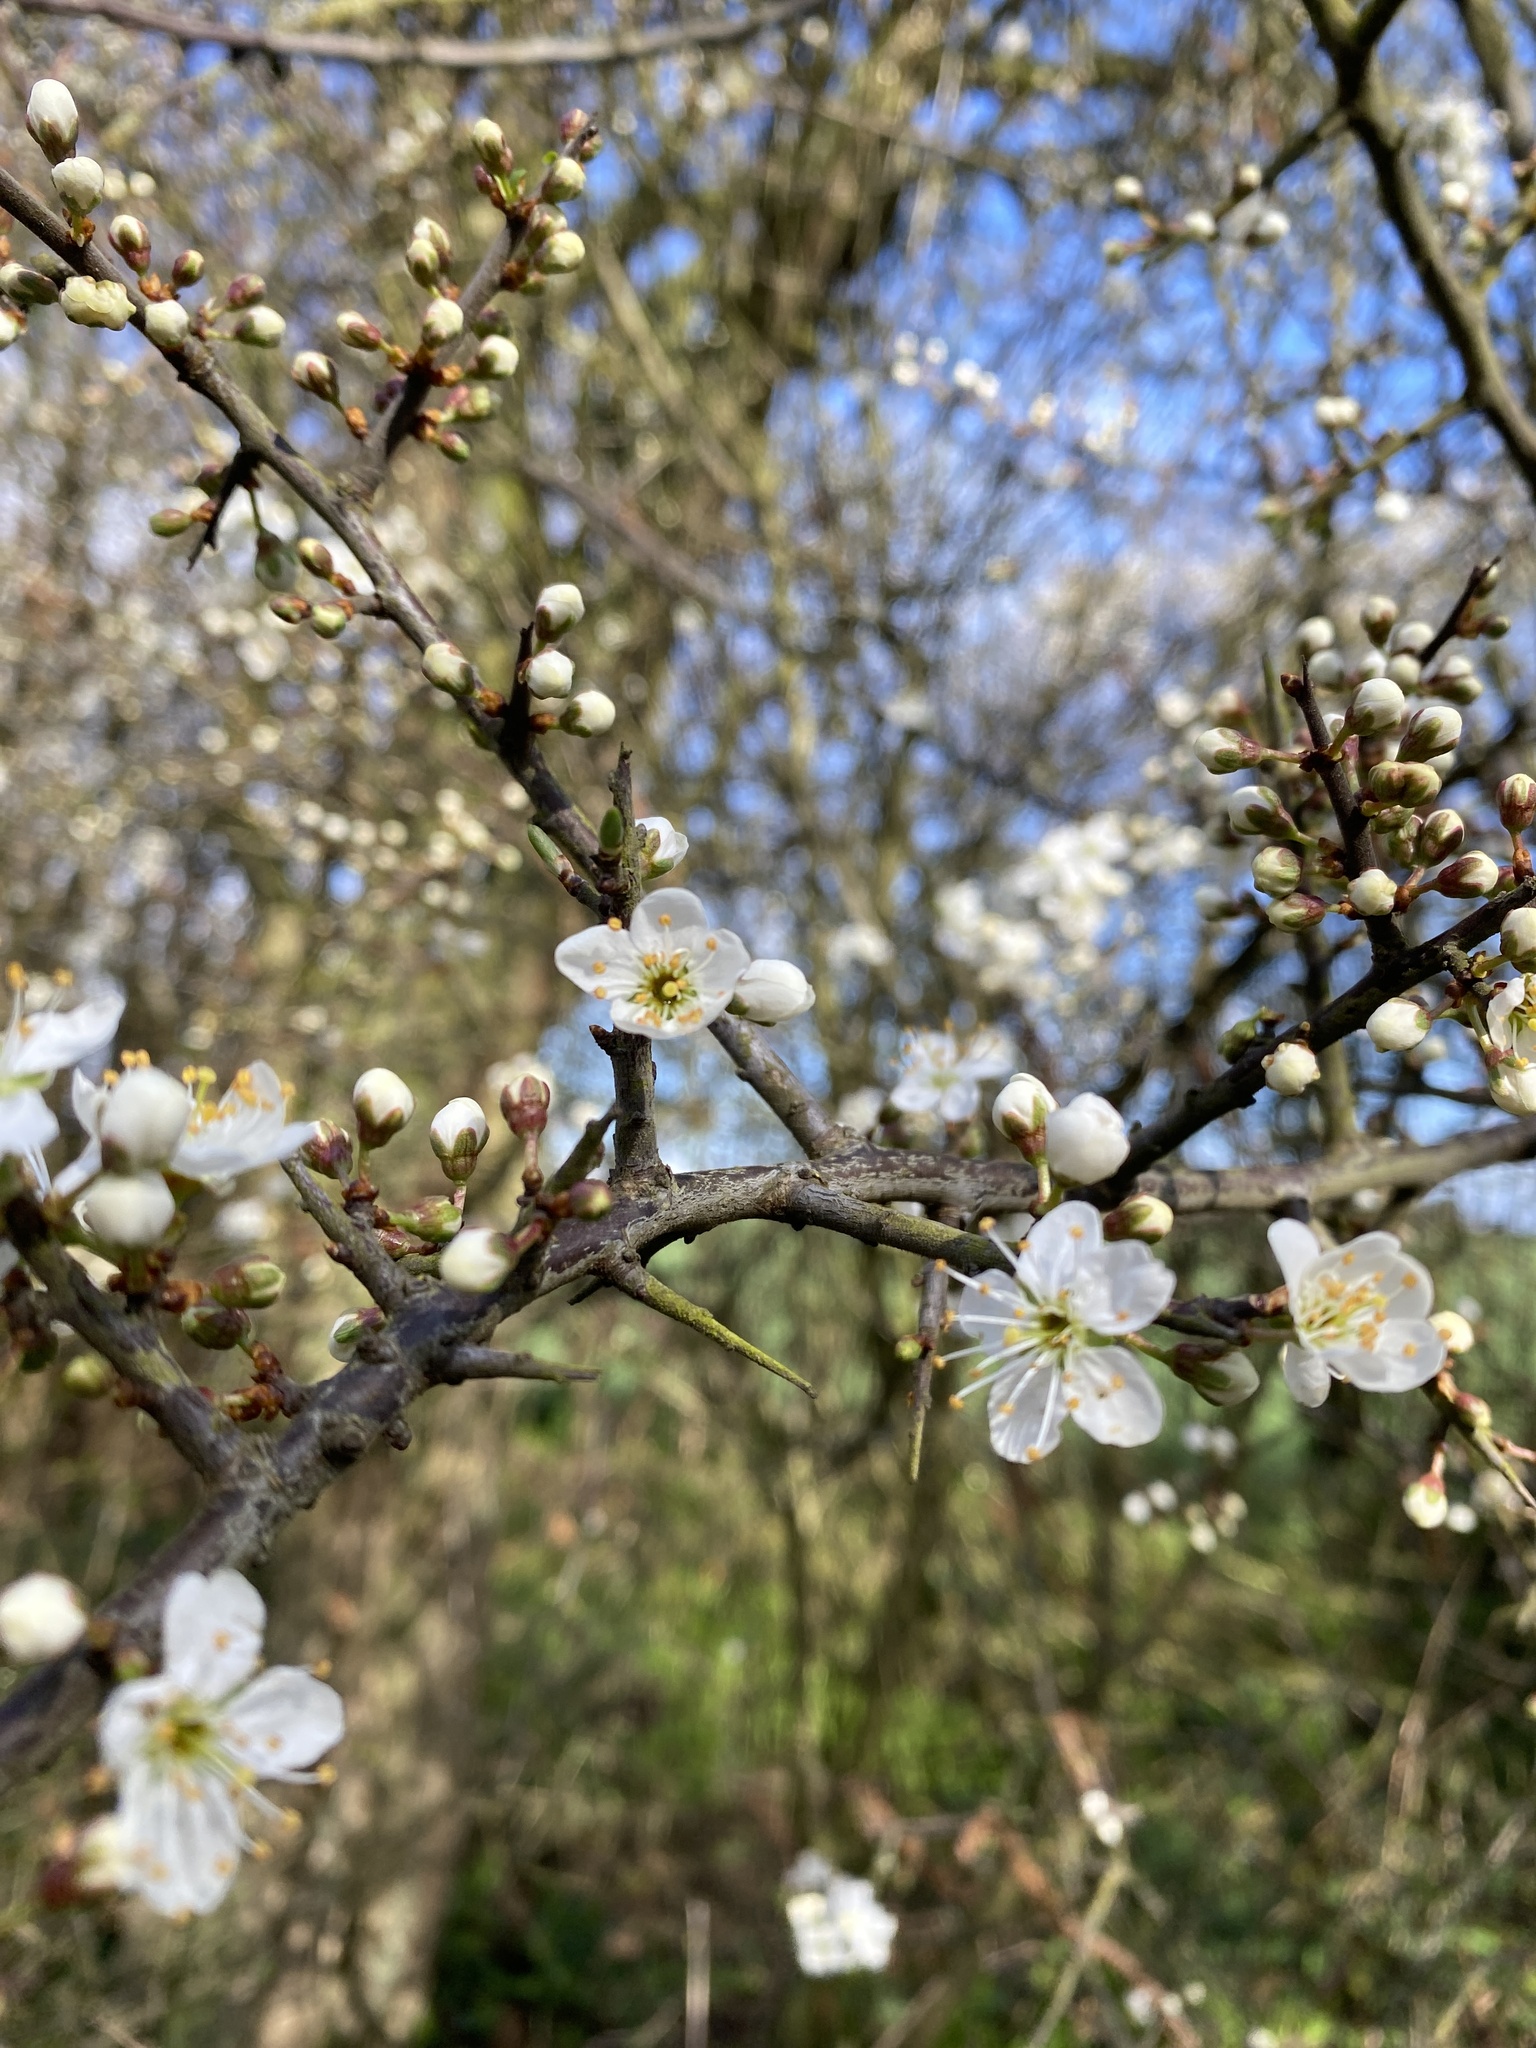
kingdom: Plantae
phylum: Tracheophyta
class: Magnoliopsida
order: Rosales
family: Rosaceae
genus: Prunus
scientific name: Prunus spinosa
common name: Blackthorn
